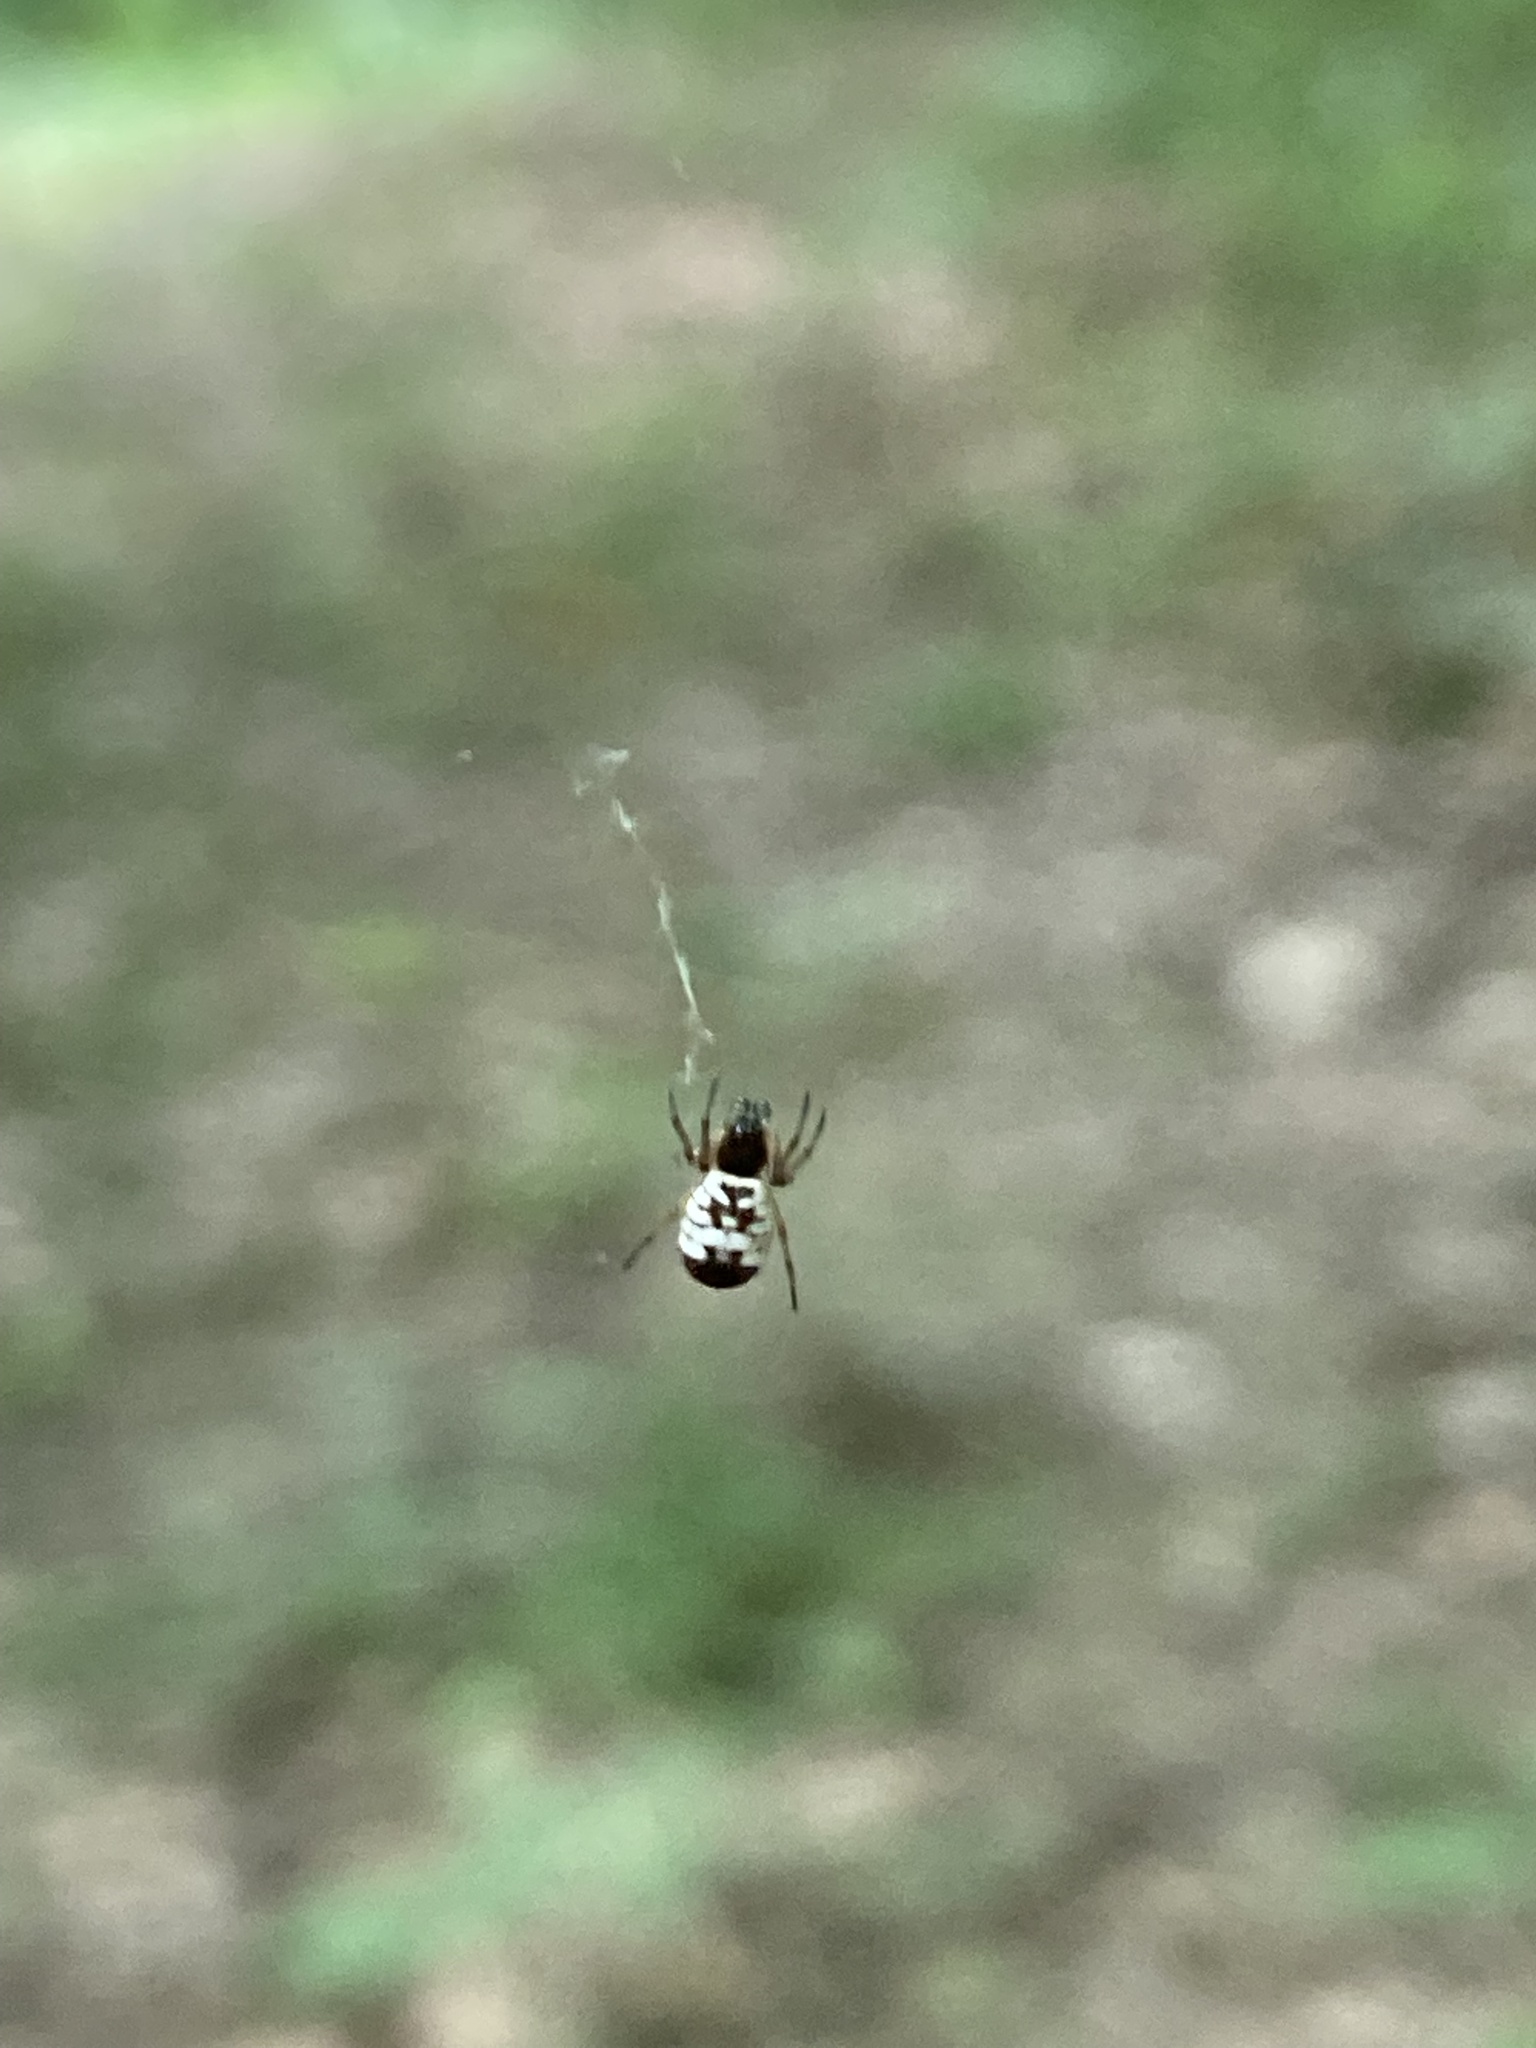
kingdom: Animalia
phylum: Arthropoda
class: Arachnida
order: Araneae
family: Araneidae
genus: Micrathena
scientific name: Micrathena mitrata
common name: Orb weavers
